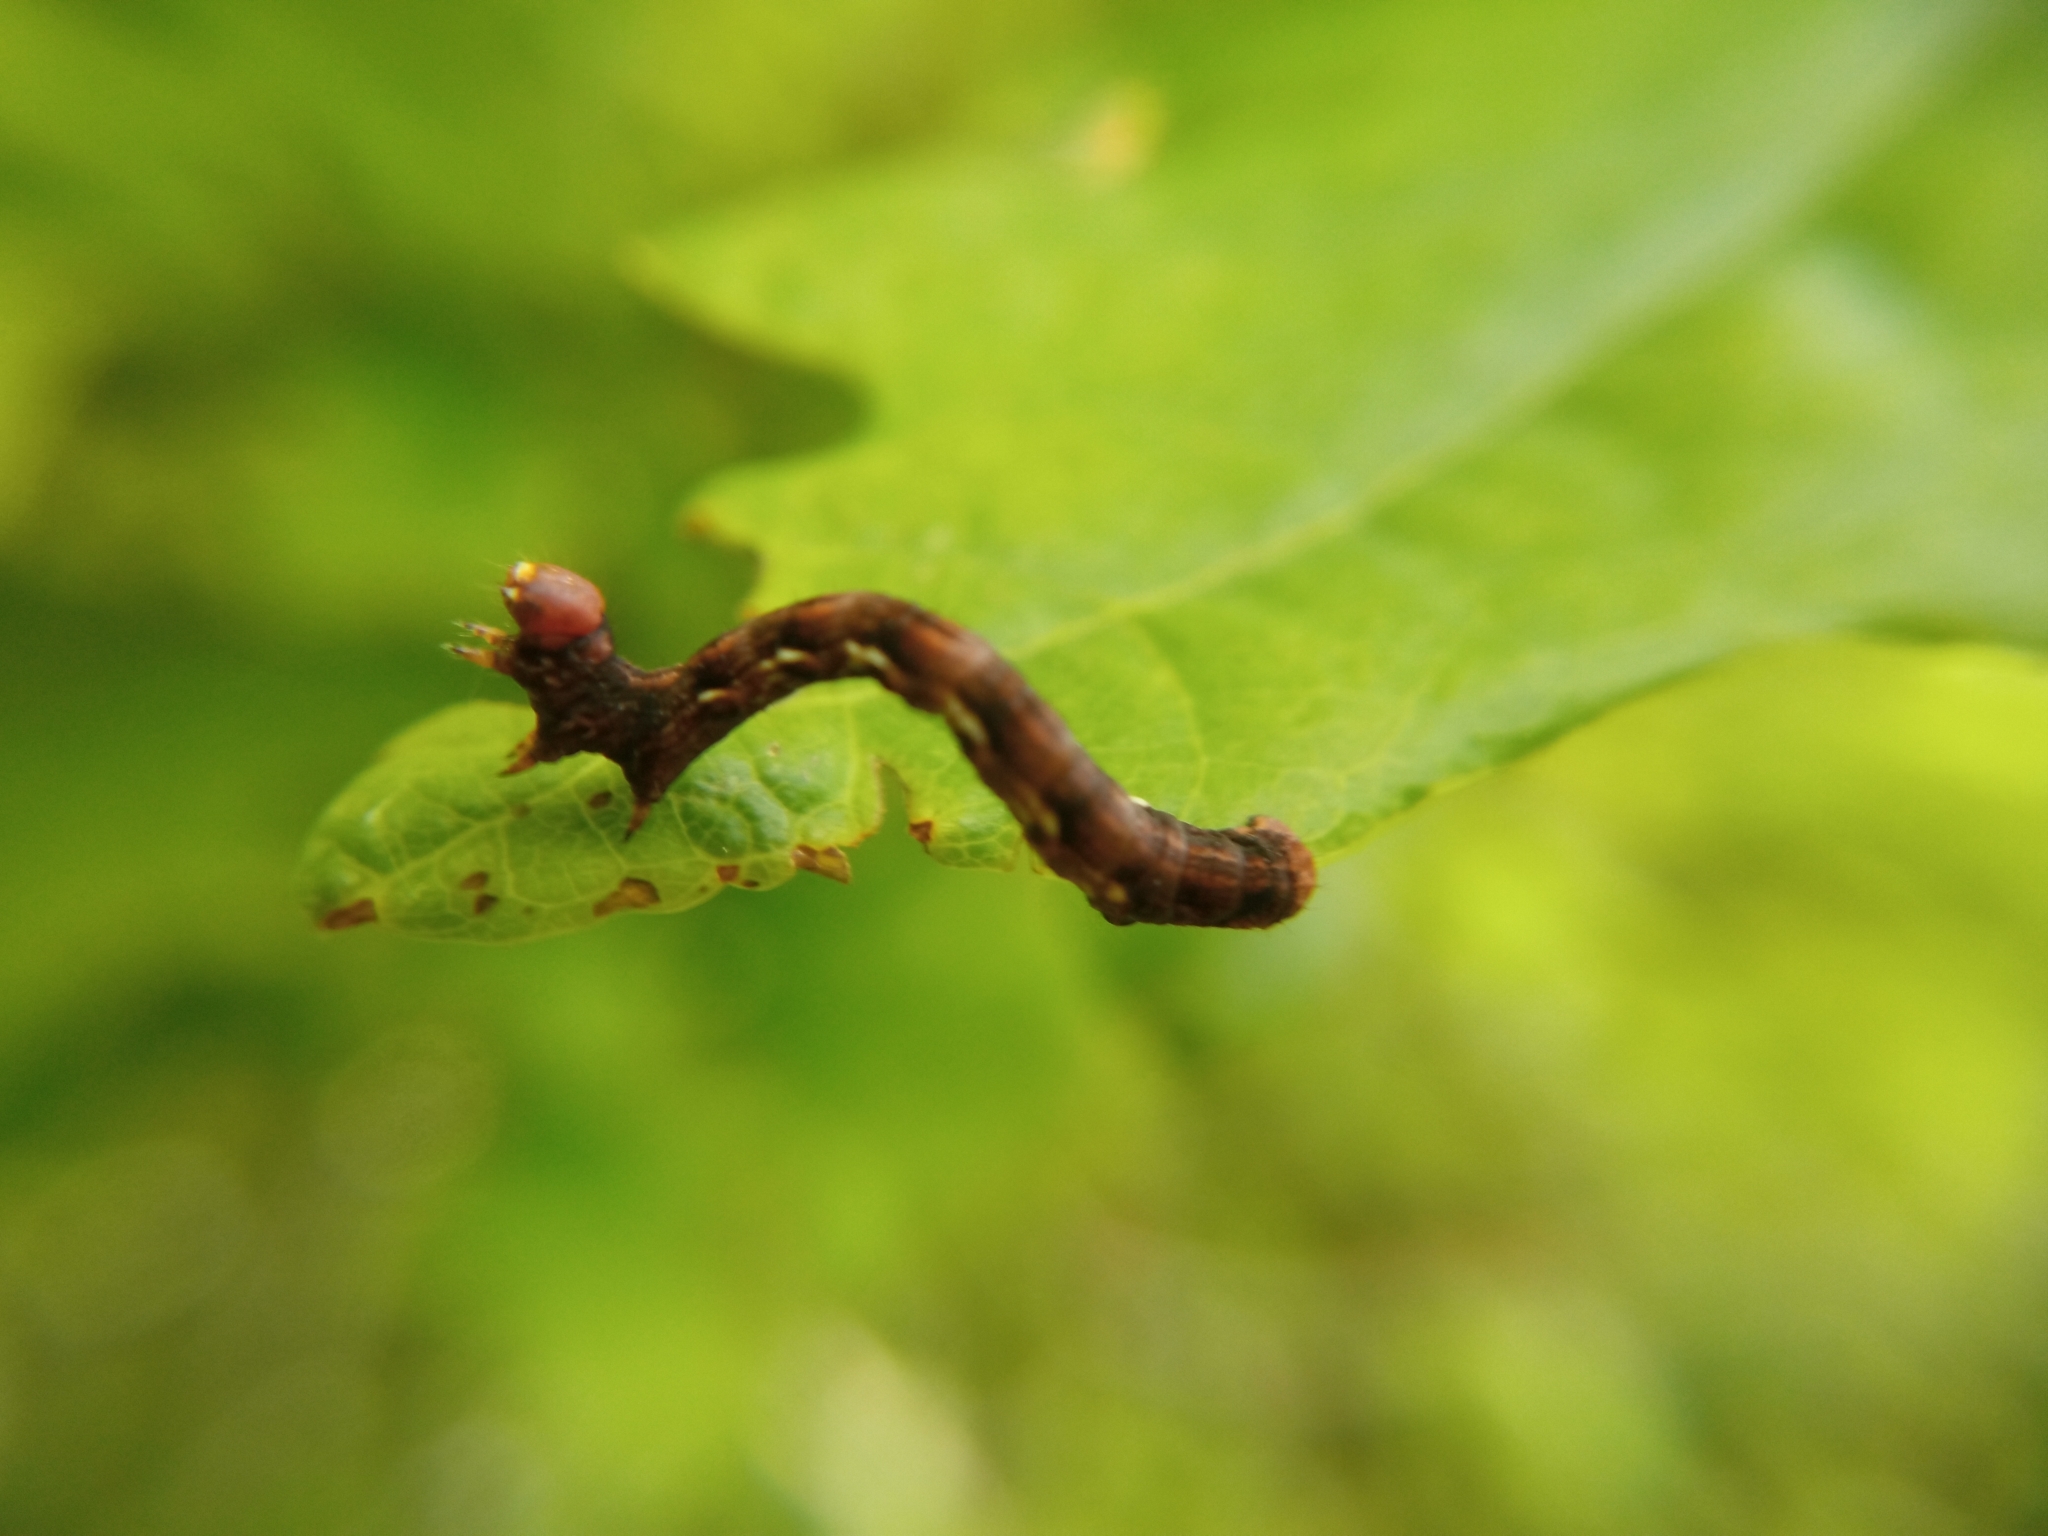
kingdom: Animalia
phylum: Arthropoda
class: Insecta
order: Lepidoptera
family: Geometridae
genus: Erannis
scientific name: Erannis defoliaria
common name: Mottled umber
